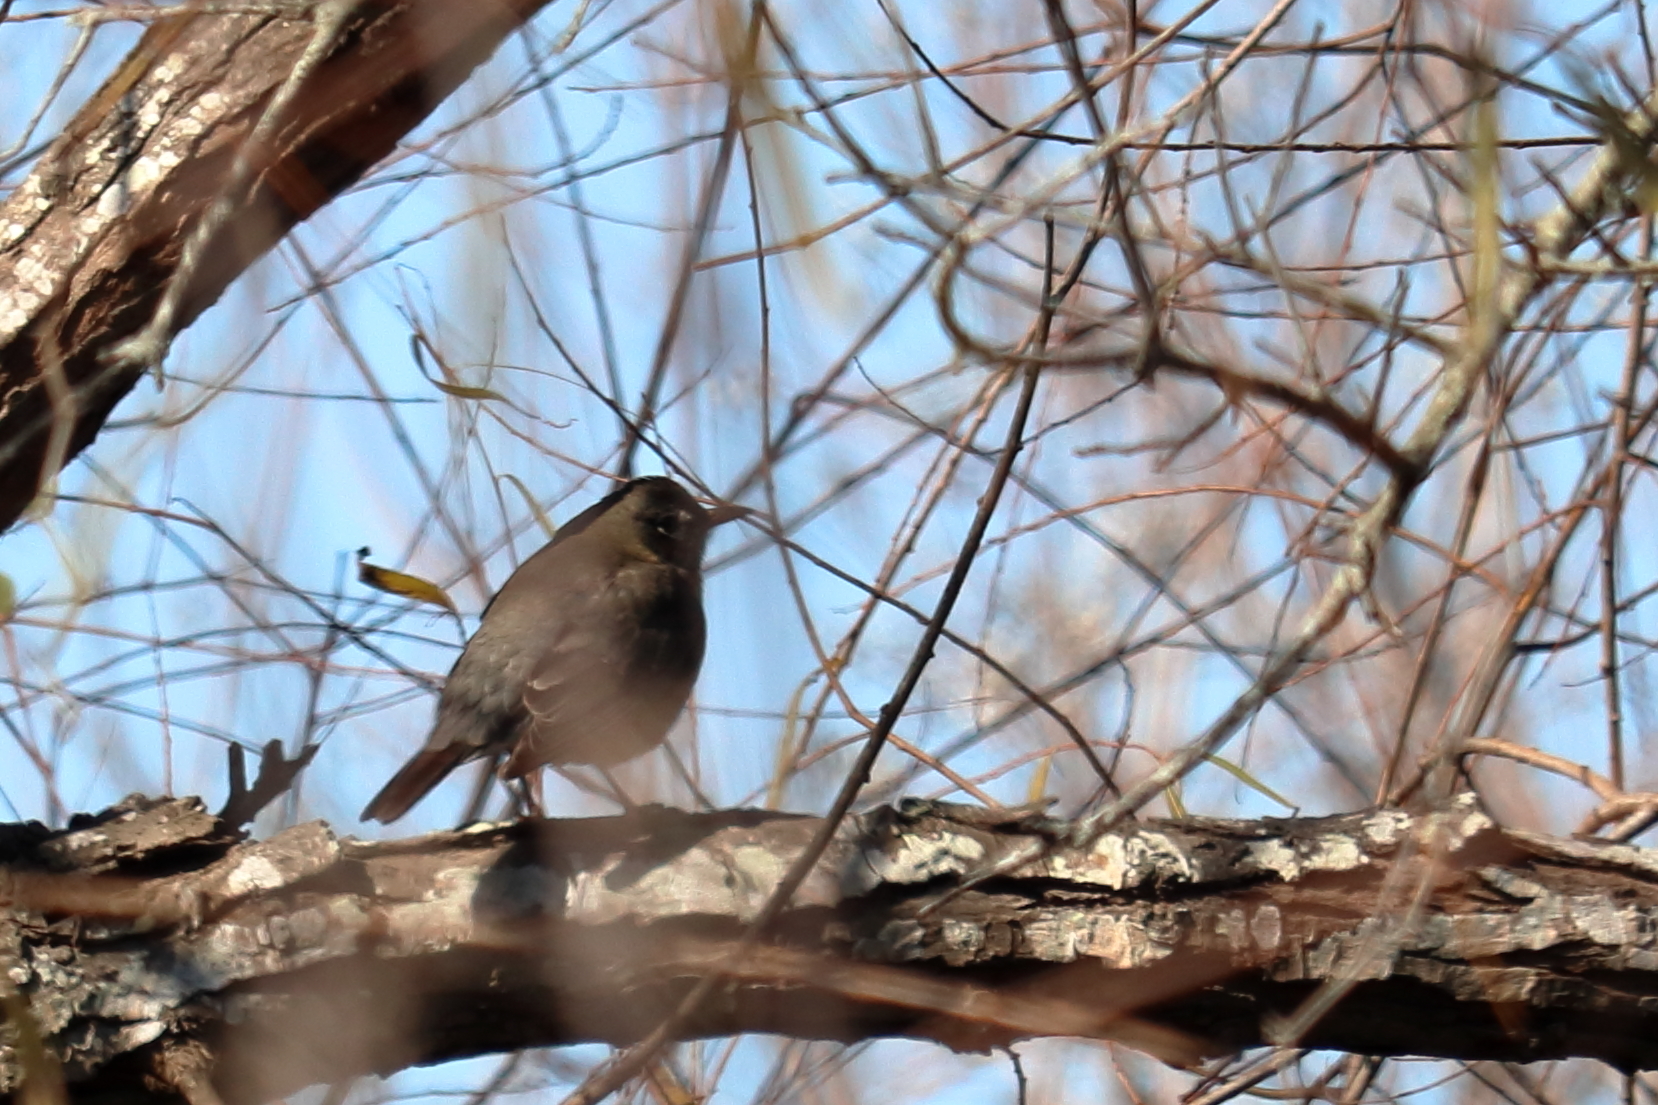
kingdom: Animalia
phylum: Chordata
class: Aves
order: Passeriformes
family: Turdidae
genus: Turdus
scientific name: Turdus migratorius
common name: American robin
